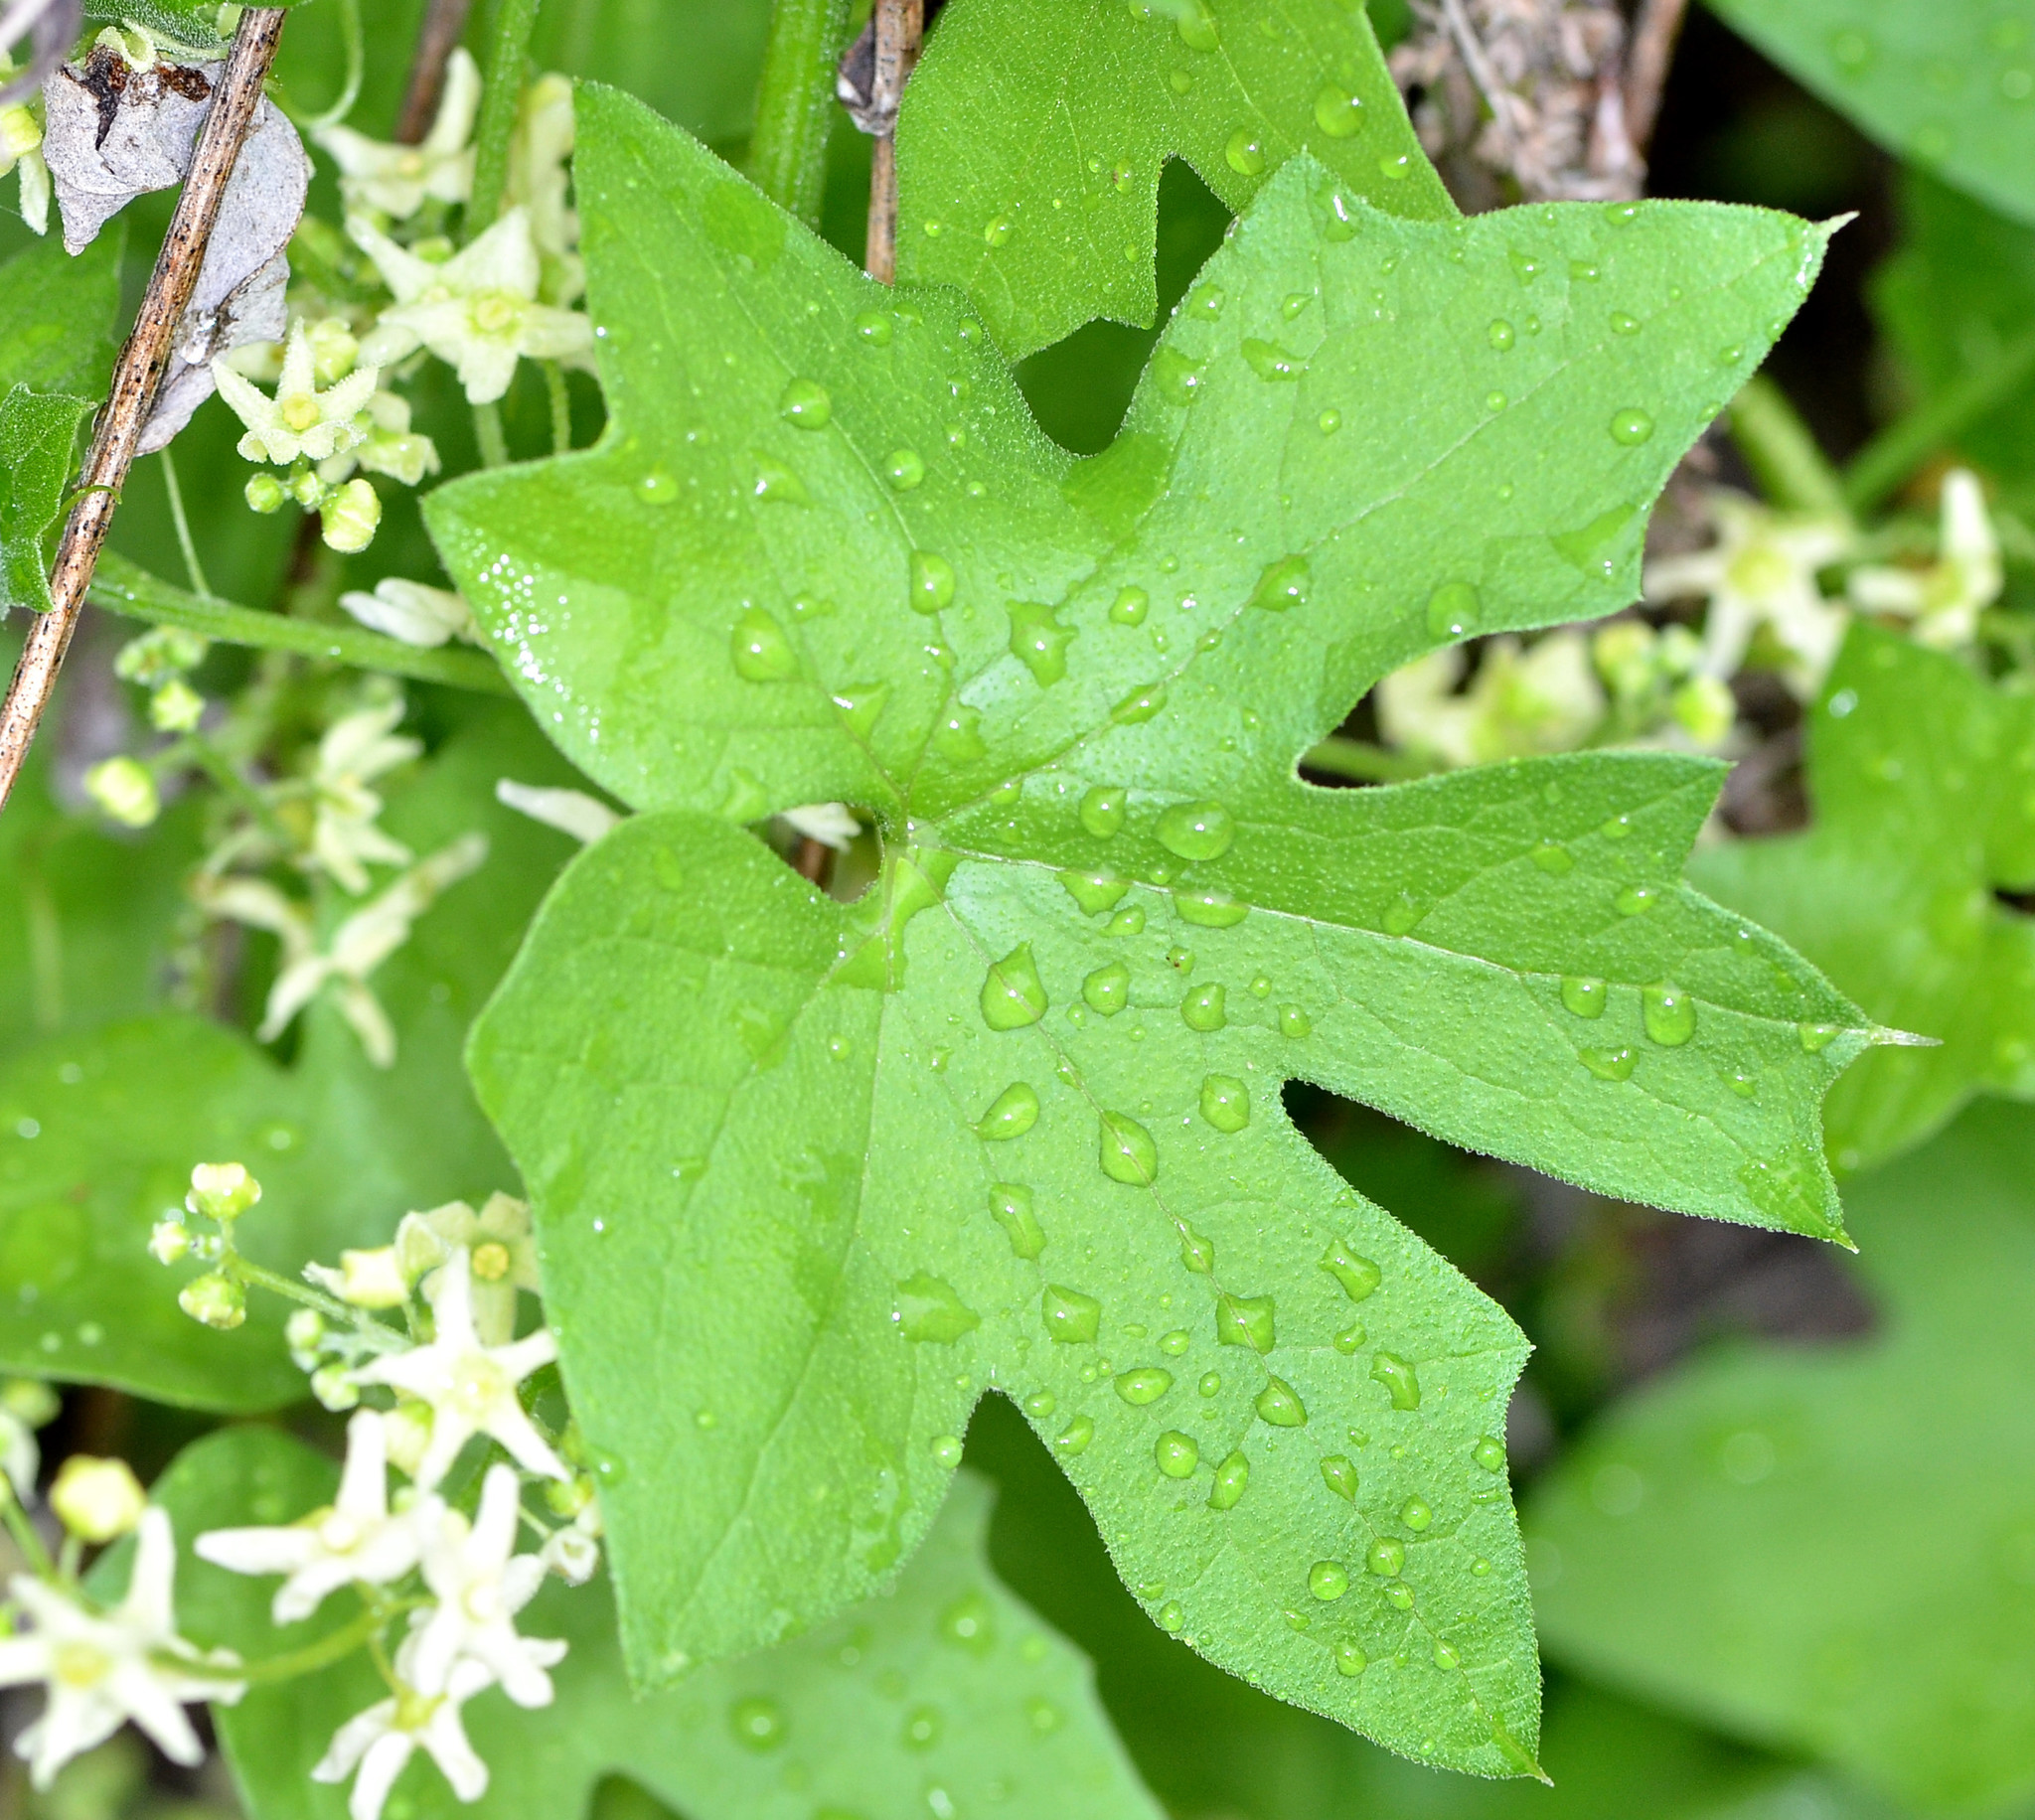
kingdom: Plantae
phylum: Tracheophyta
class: Magnoliopsida
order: Cucurbitales
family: Cucurbitaceae
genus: Marah
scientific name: Marah fabacea
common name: California manroot
